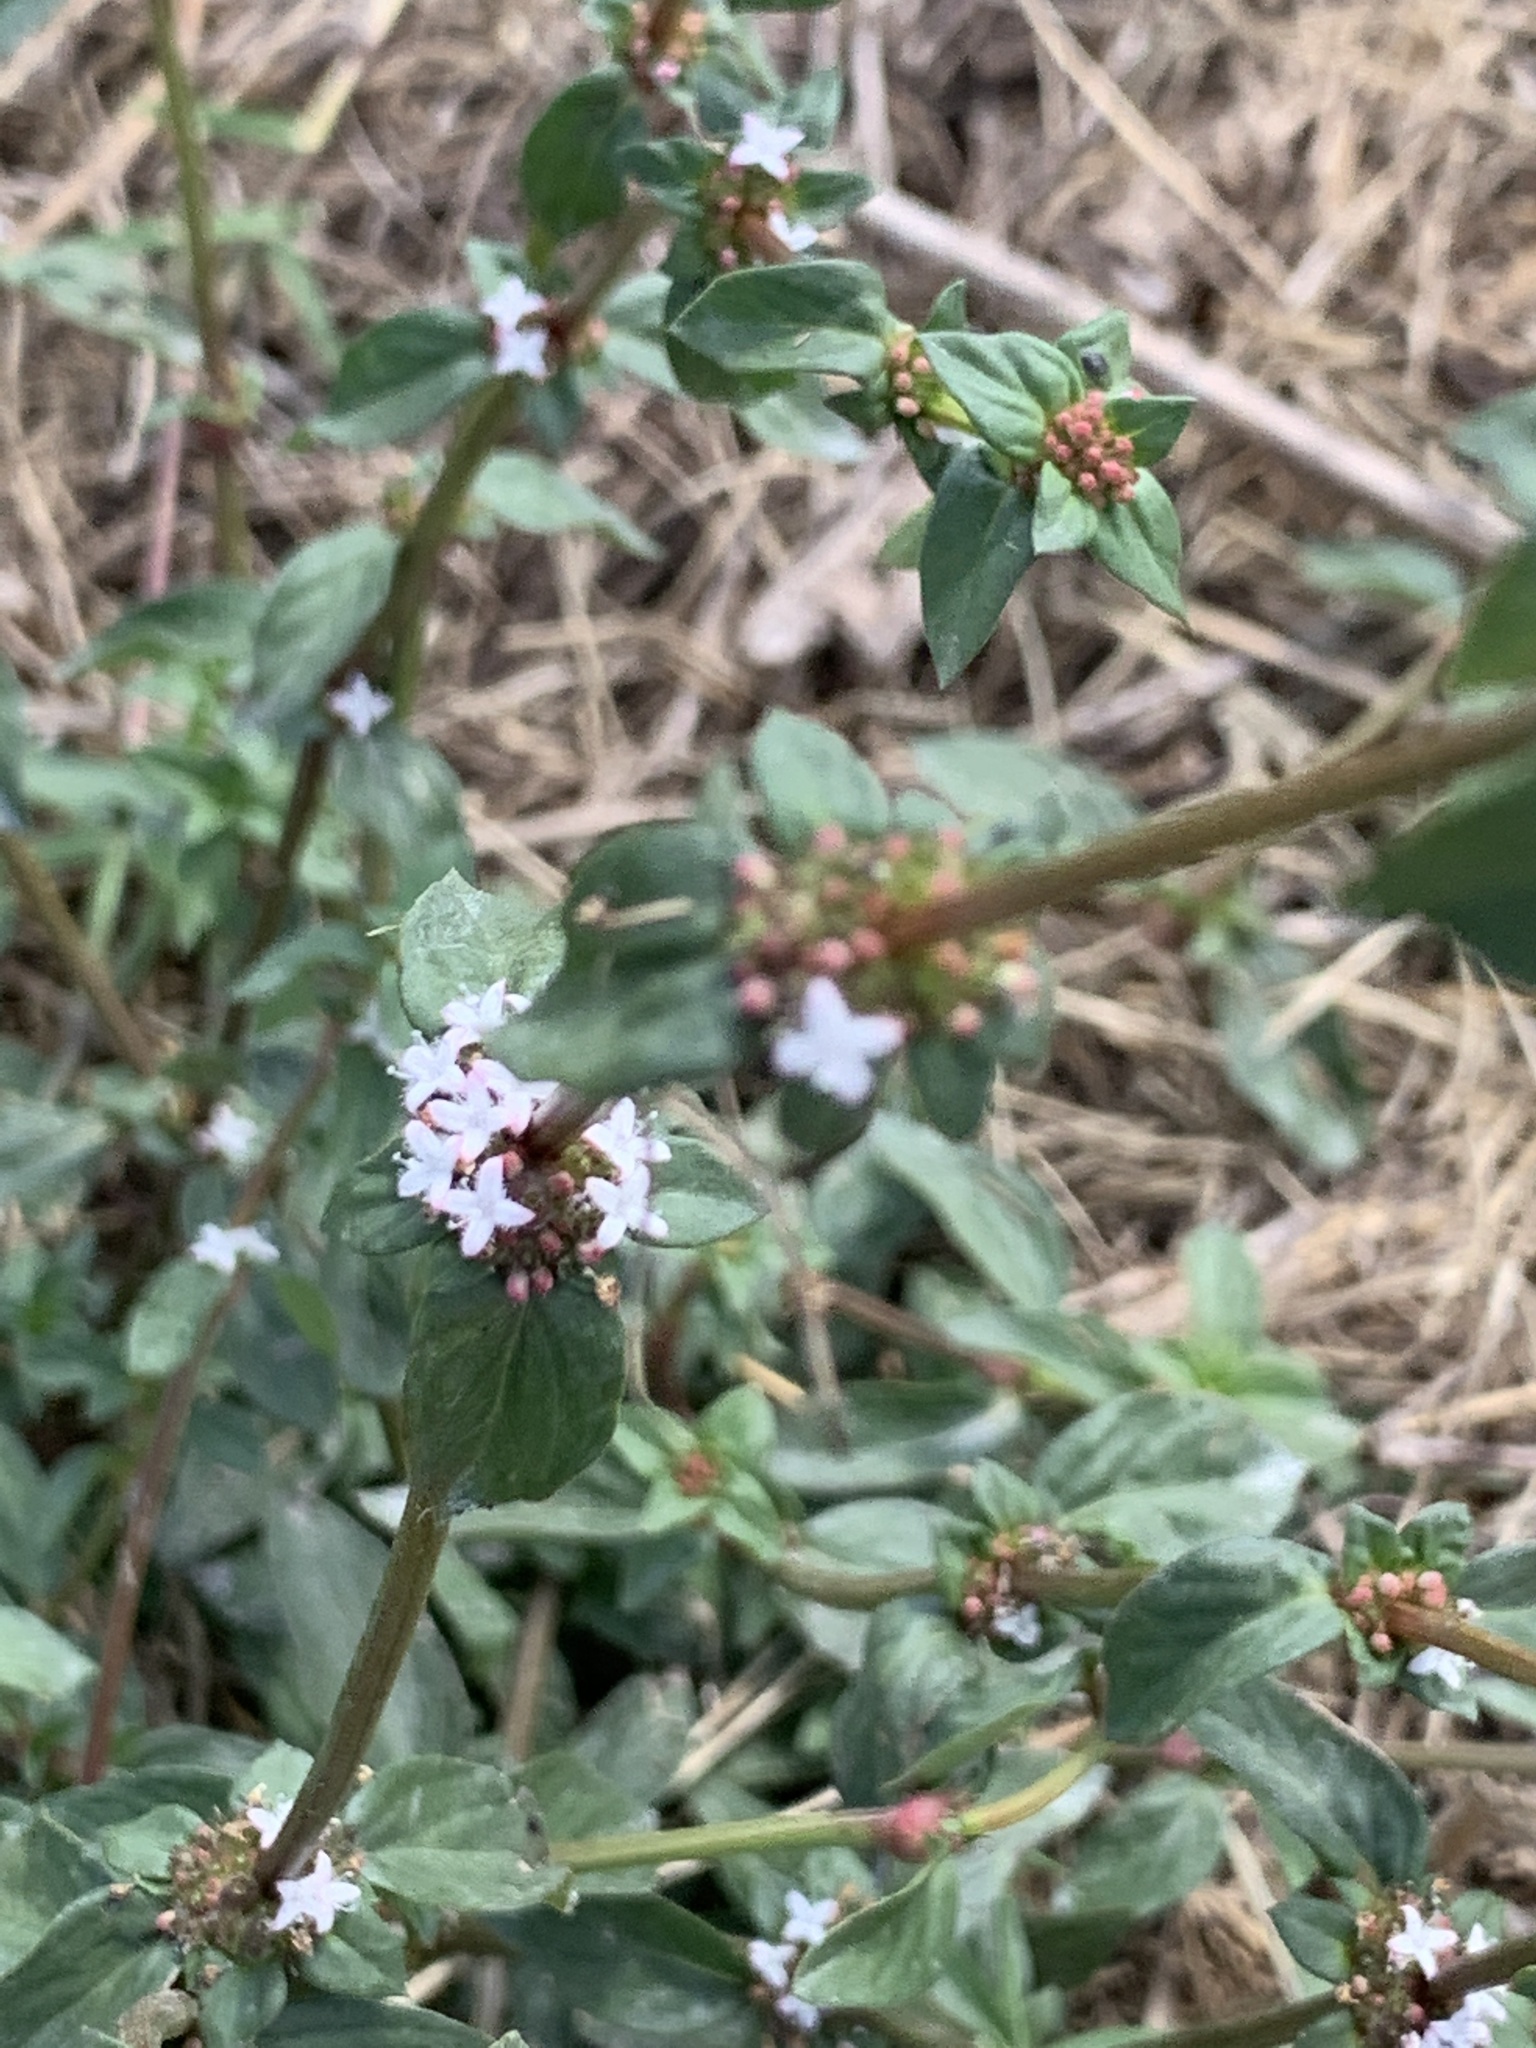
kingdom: Plantae
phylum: Tracheophyta
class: Magnoliopsida
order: Gentianales
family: Rubiaceae
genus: Spermacoce
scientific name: Spermacoce remota
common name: Woodland false buttonweed
